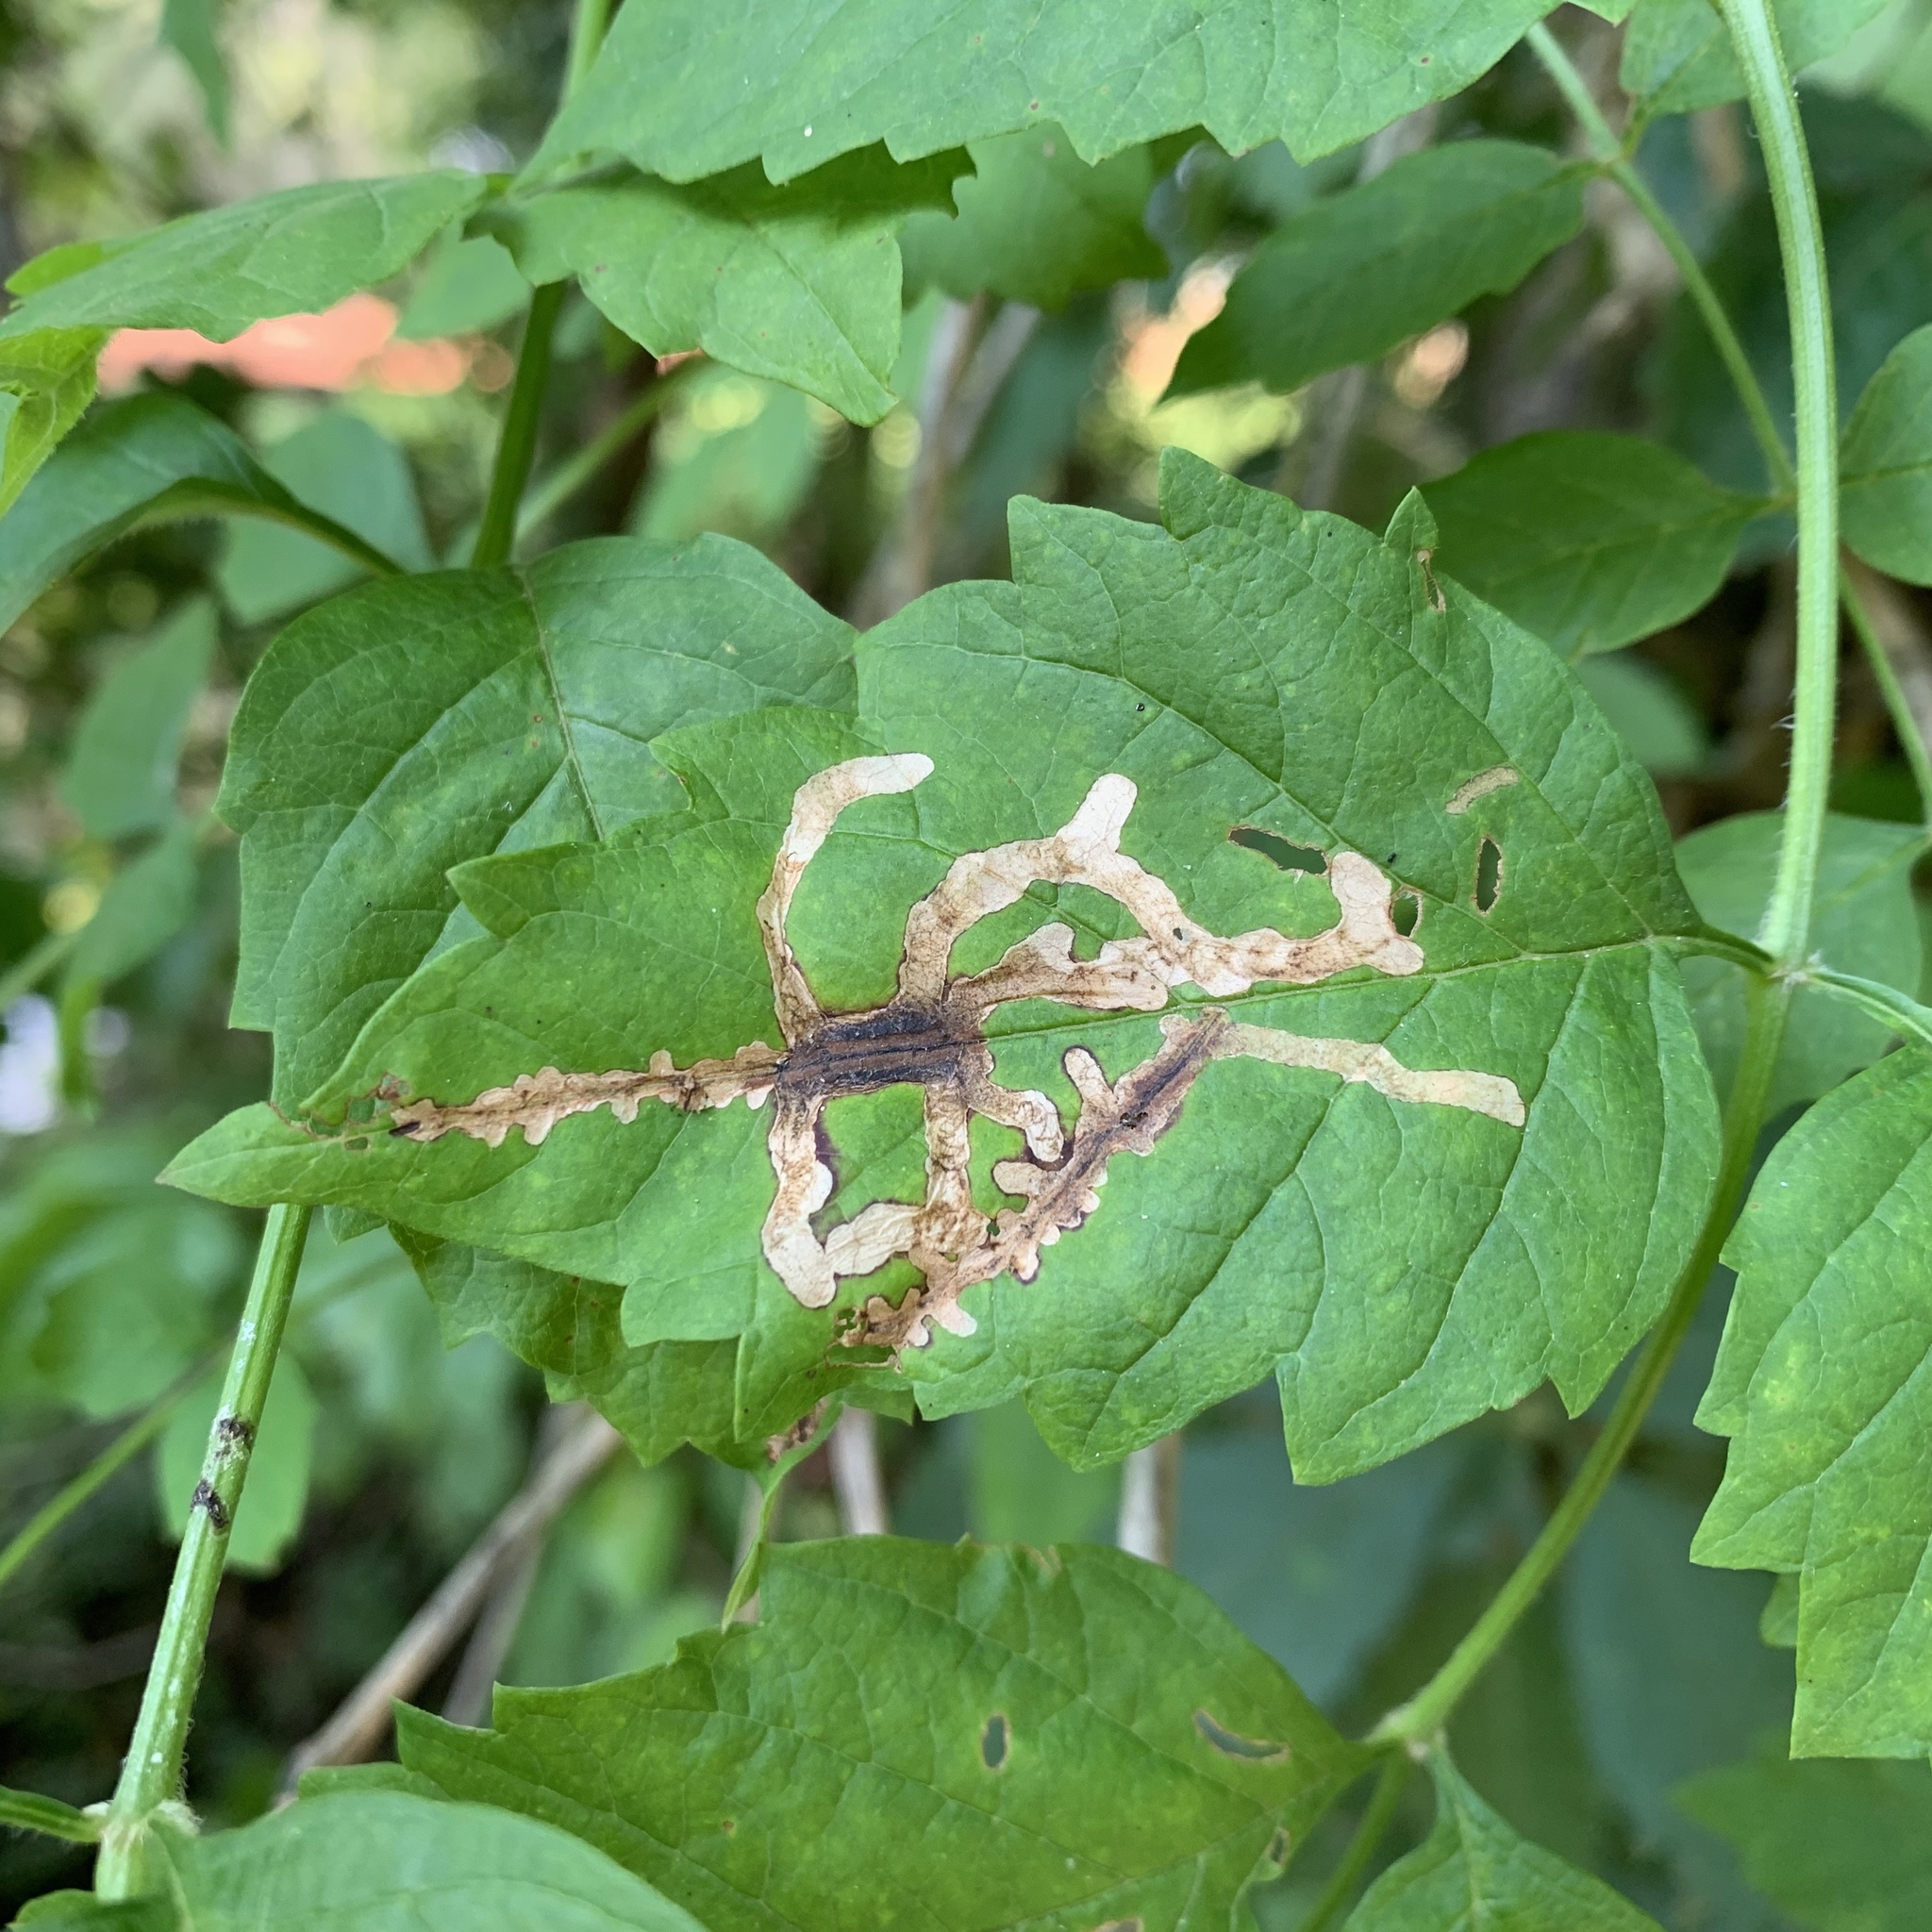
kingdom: Animalia
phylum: Arthropoda
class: Insecta
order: Coleoptera
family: Chrysomelidae
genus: Octotoma
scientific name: Octotoma plicatula
